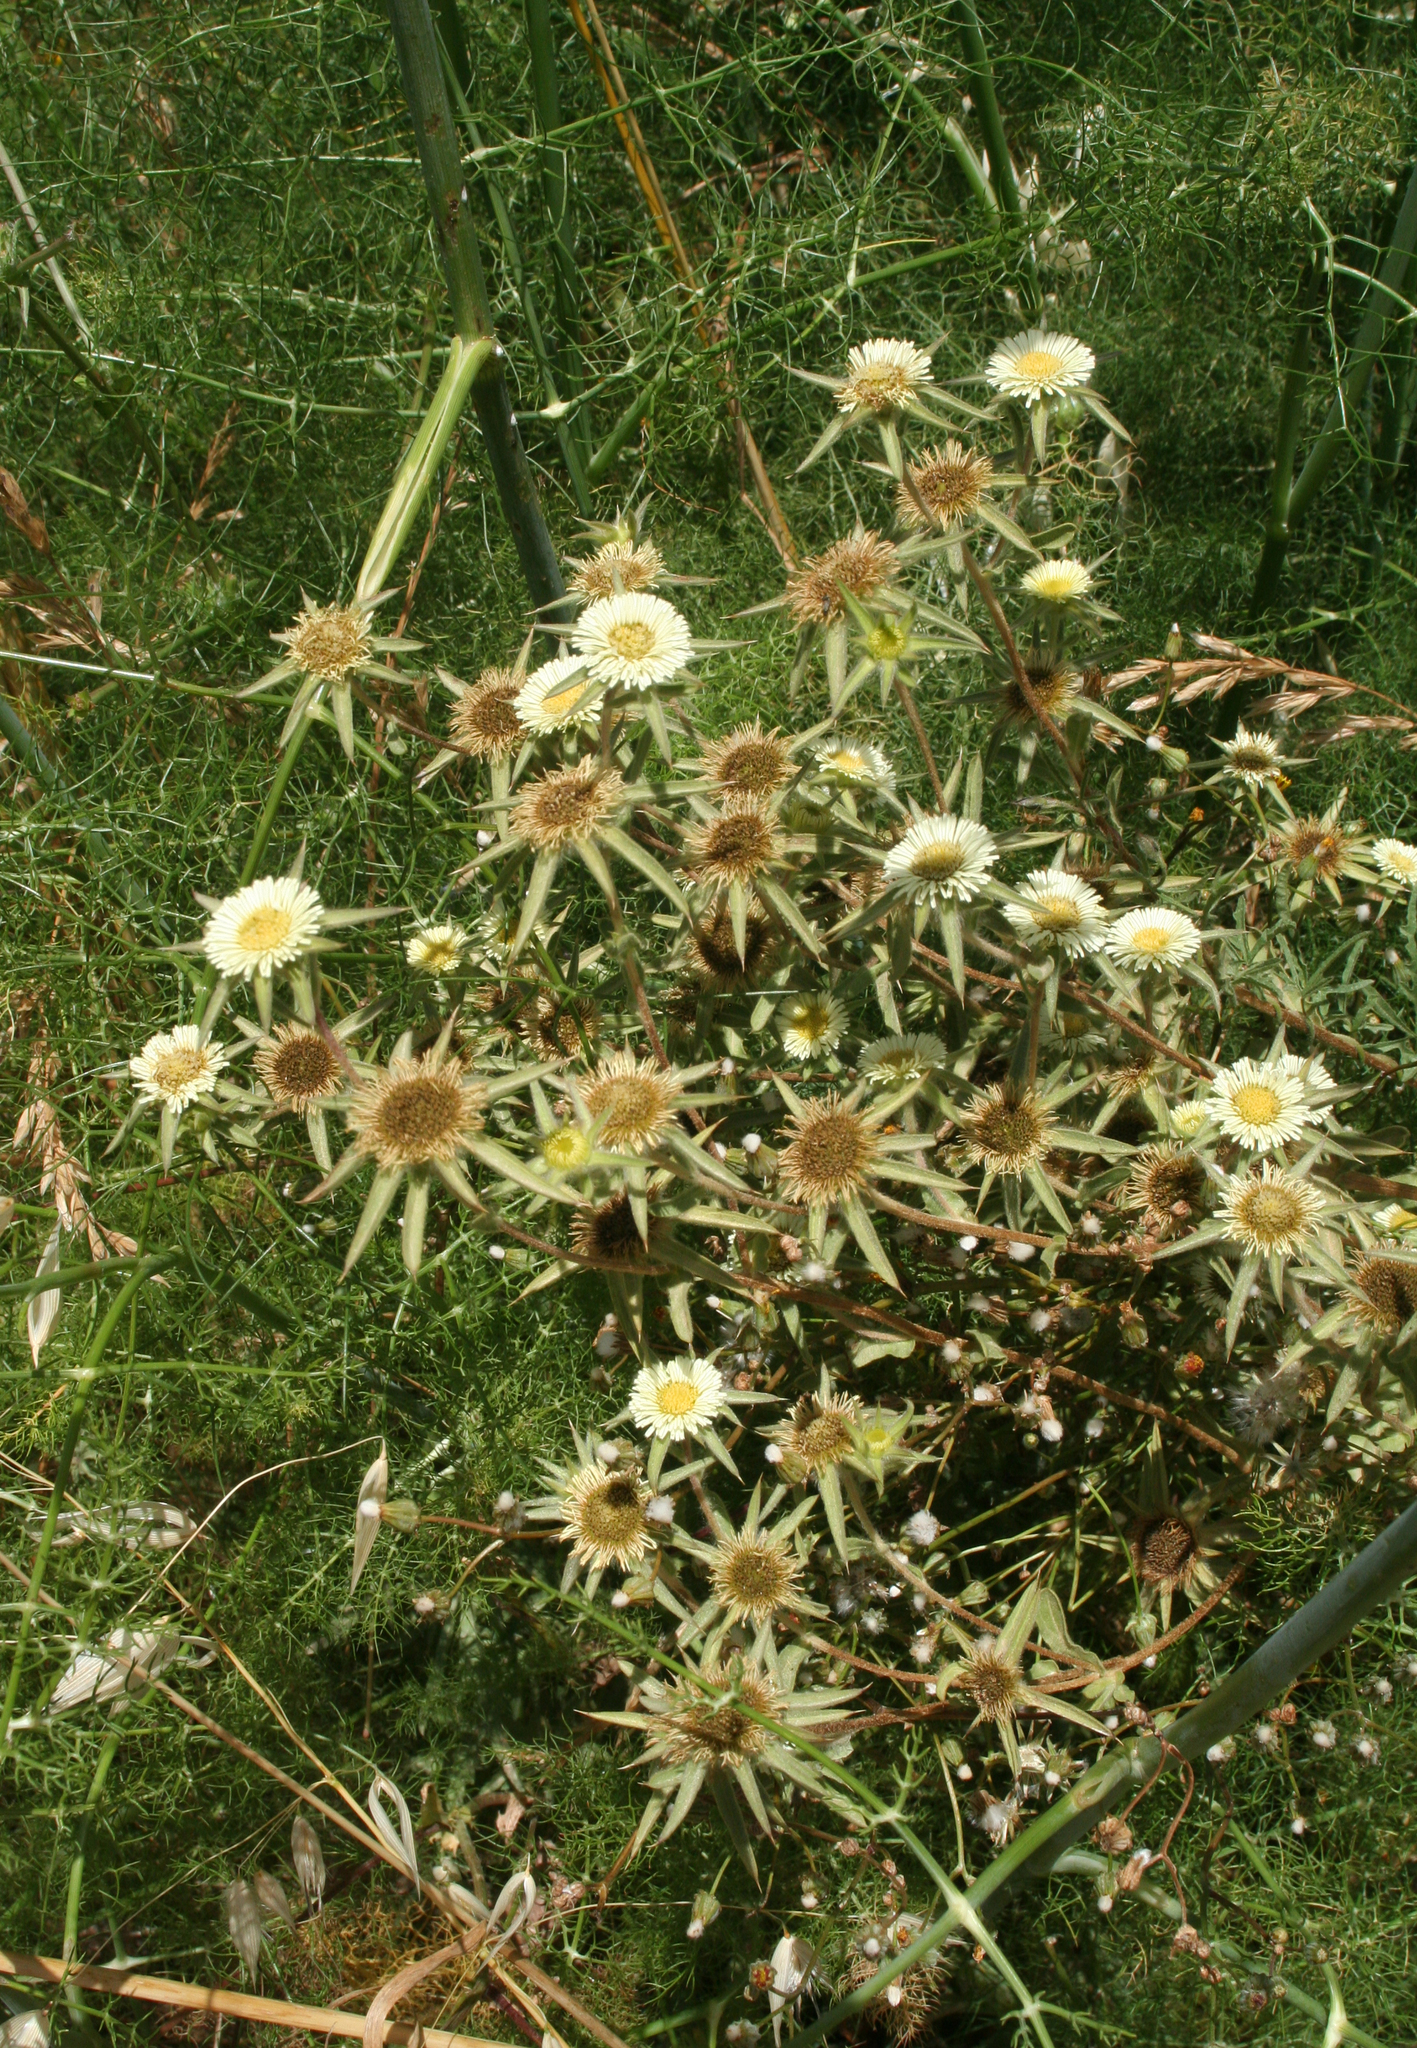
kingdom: Plantae
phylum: Tracheophyta
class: Magnoliopsida
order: Asterales
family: Asteraceae
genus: Pallenis
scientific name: Pallenis spinosa
